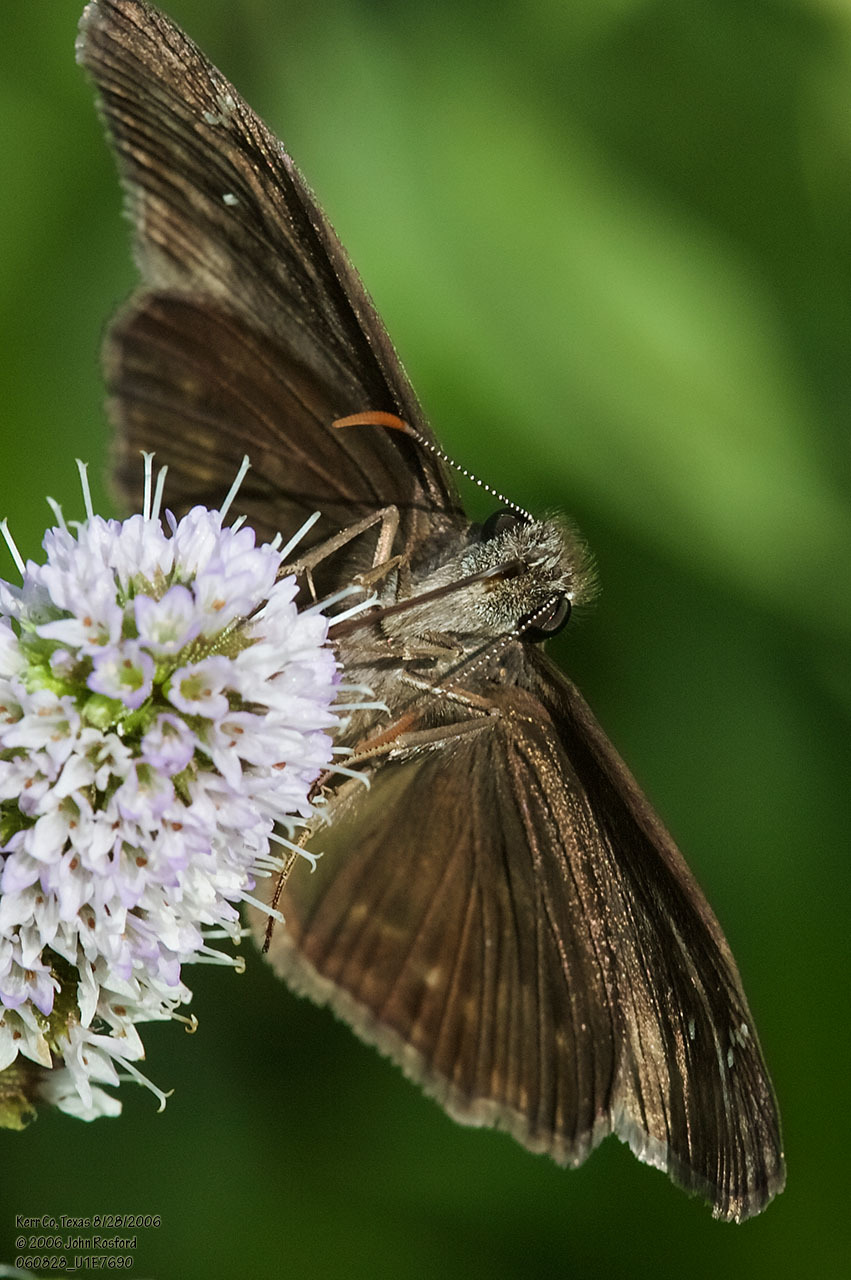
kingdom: Animalia
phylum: Arthropoda
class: Insecta
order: Lepidoptera
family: Hesperiidae
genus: Erynnis
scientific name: Erynnis horatius
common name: Horace's duskywing
